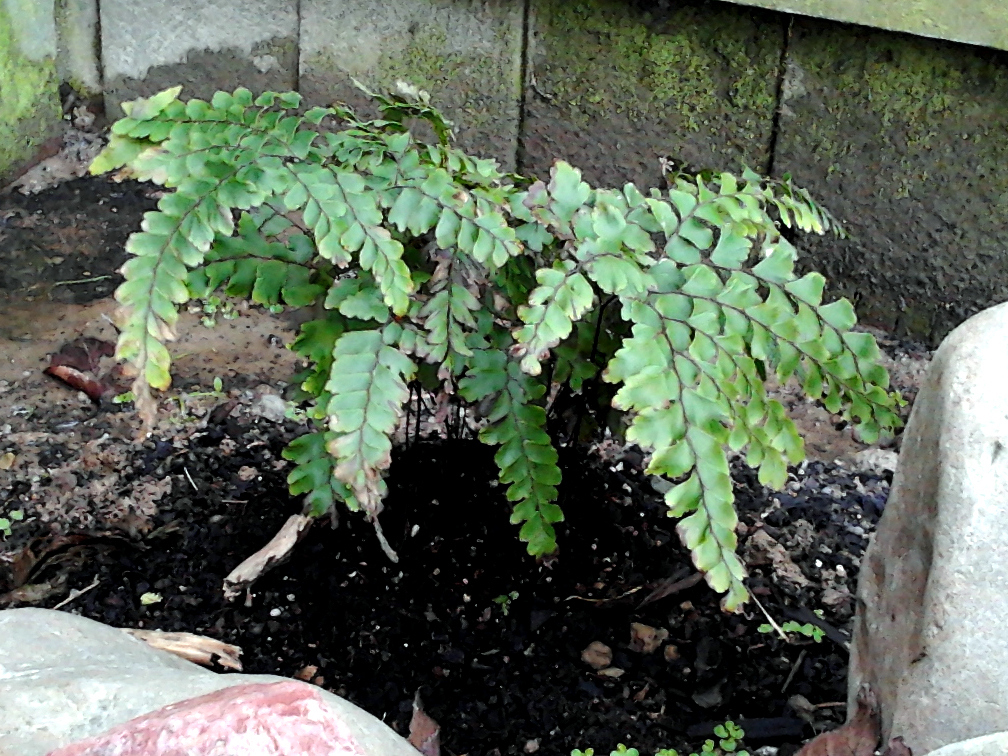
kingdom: Plantae
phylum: Tracheophyta
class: Polypodiopsida
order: Polypodiales
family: Pteridaceae
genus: Adiantum
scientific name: Adiantum formosum
